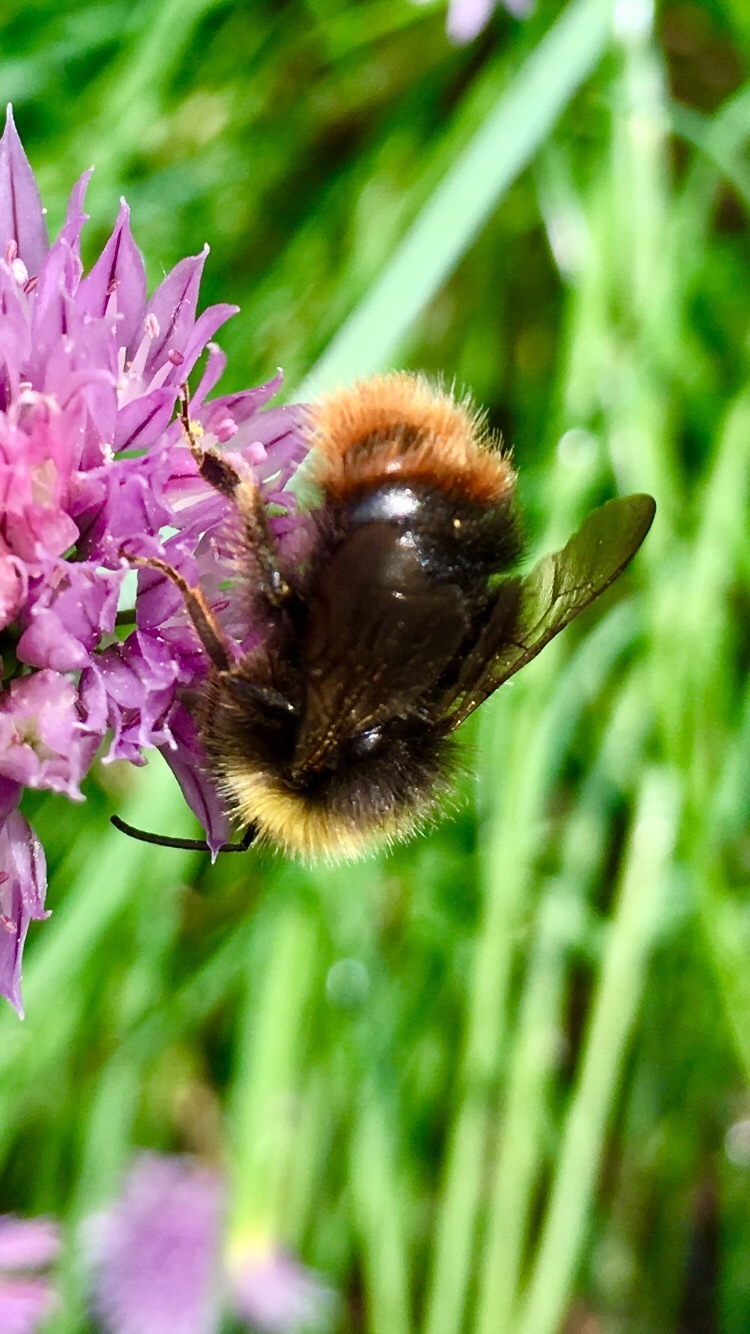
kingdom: Animalia
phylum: Arthropoda
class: Insecta
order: Hymenoptera
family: Apidae
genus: Bombus
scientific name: Bombus pratorum
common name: Early humble-bee
